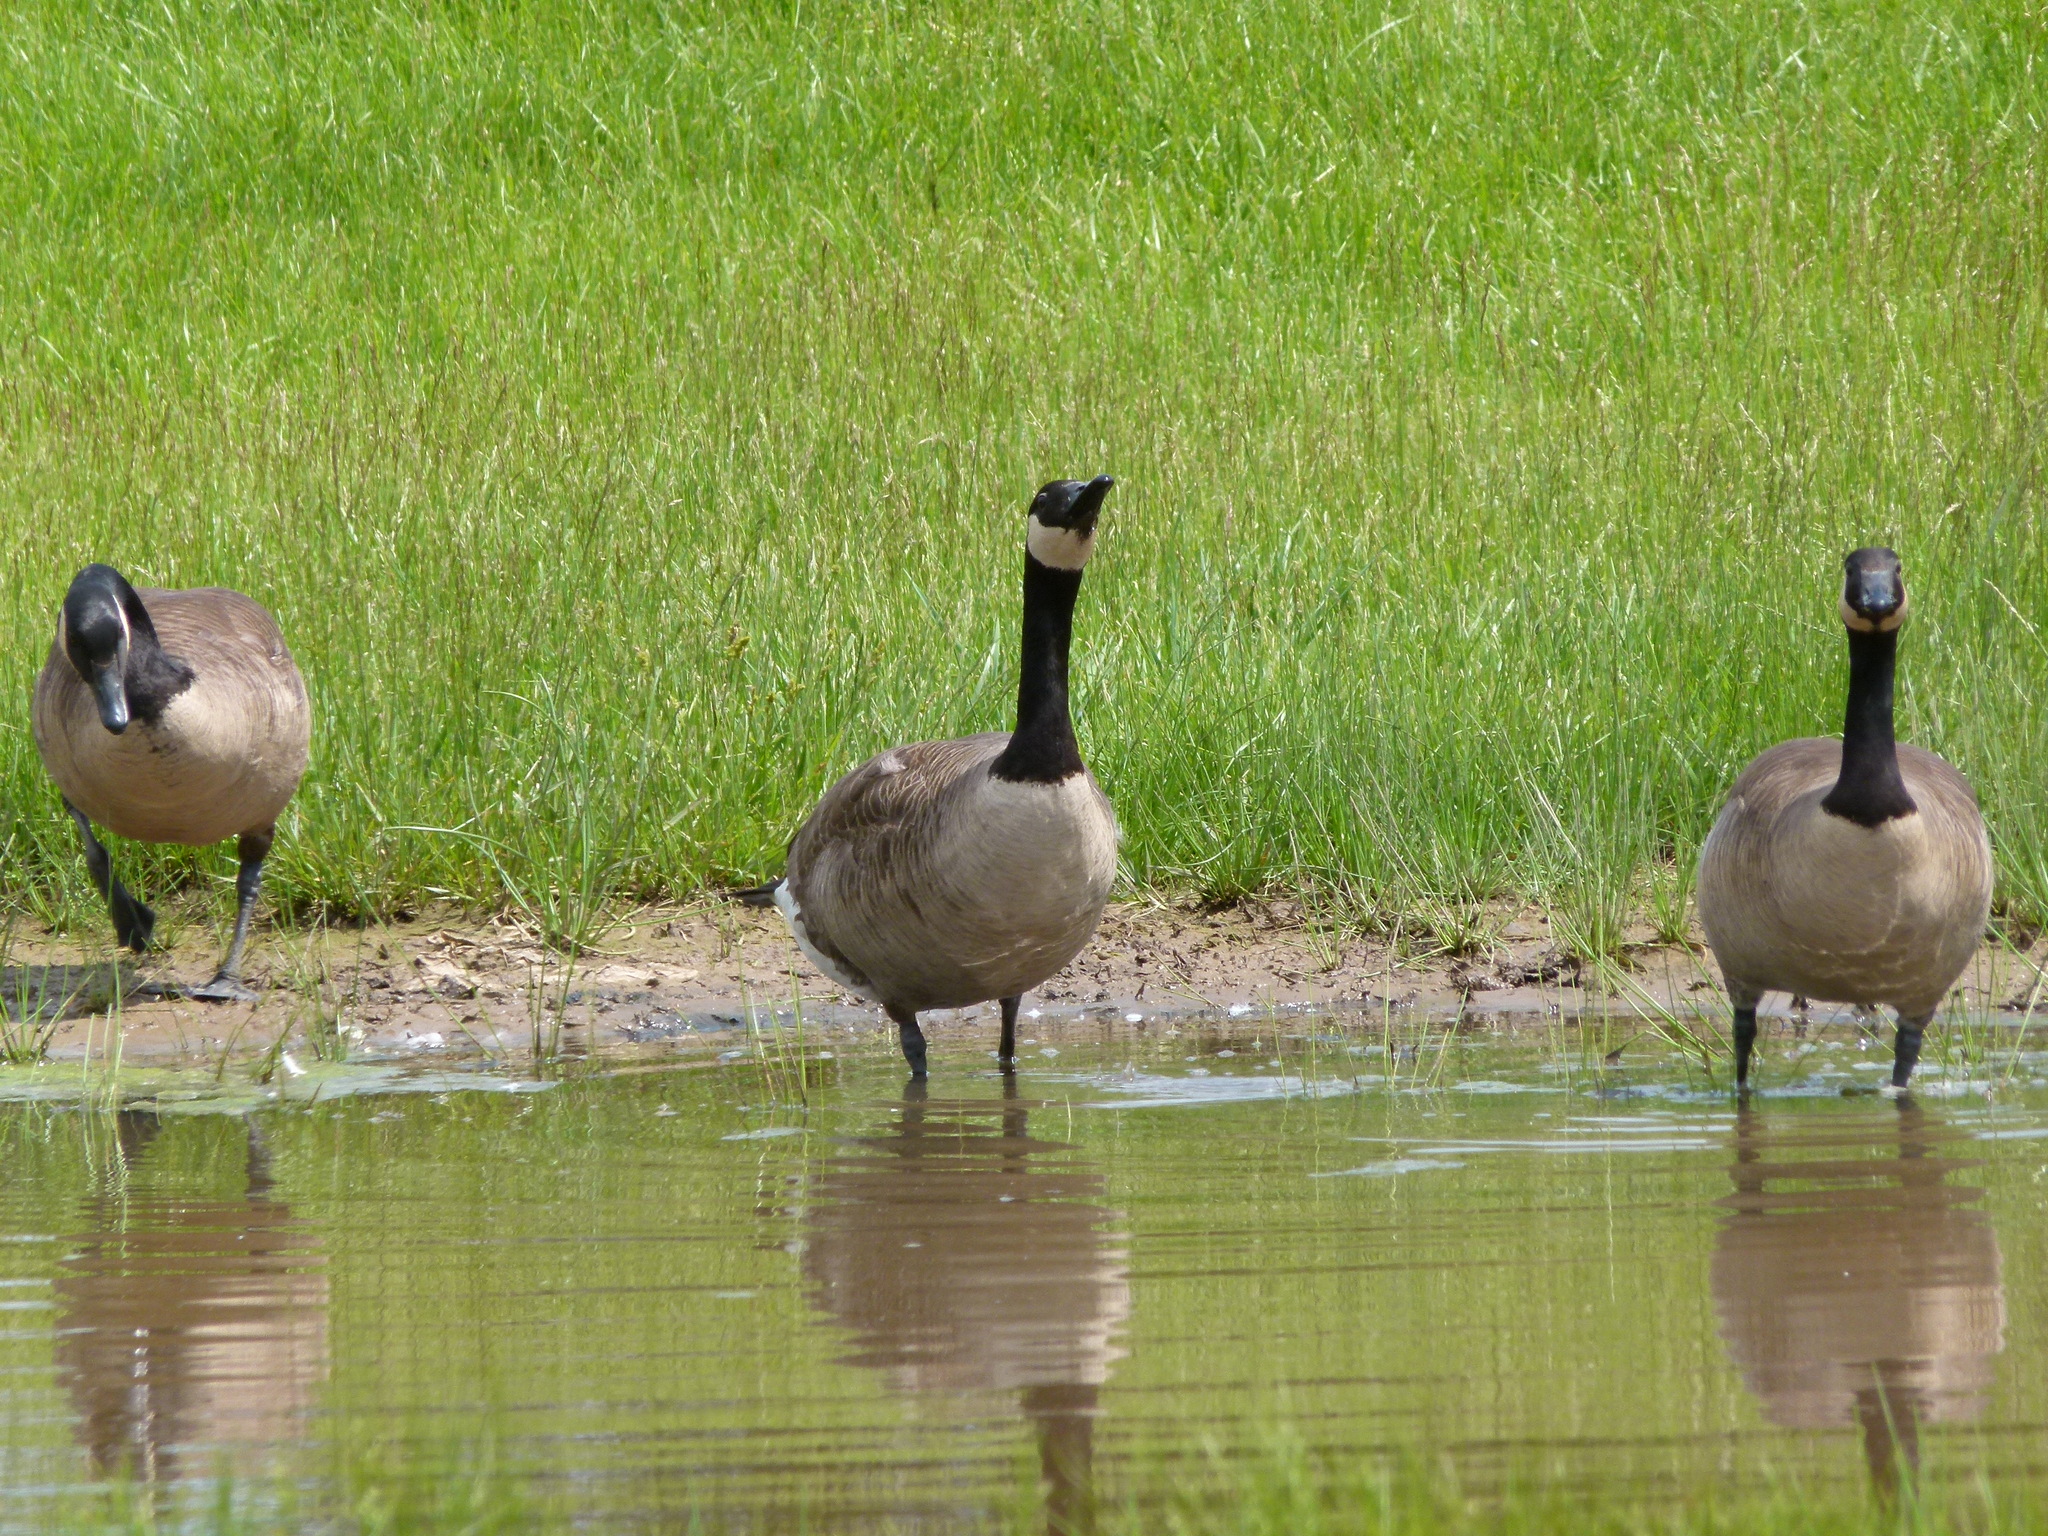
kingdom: Animalia
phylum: Chordata
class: Aves
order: Anseriformes
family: Anatidae
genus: Branta
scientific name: Branta canadensis
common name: Canada goose
